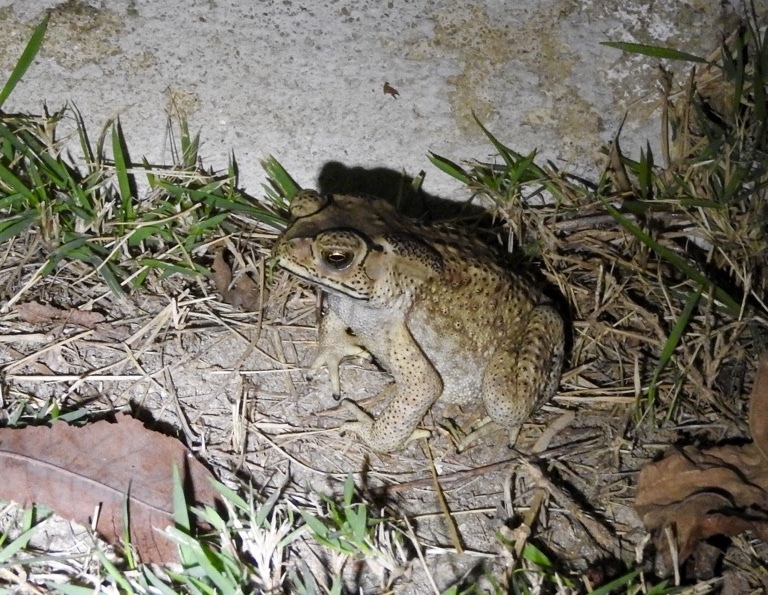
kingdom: Animalia
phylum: Chordata
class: Amphibia
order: Anura
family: Bufonidae
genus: Duttaphrynus
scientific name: Duttaphrynus melanostictus
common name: Common sunda toad
